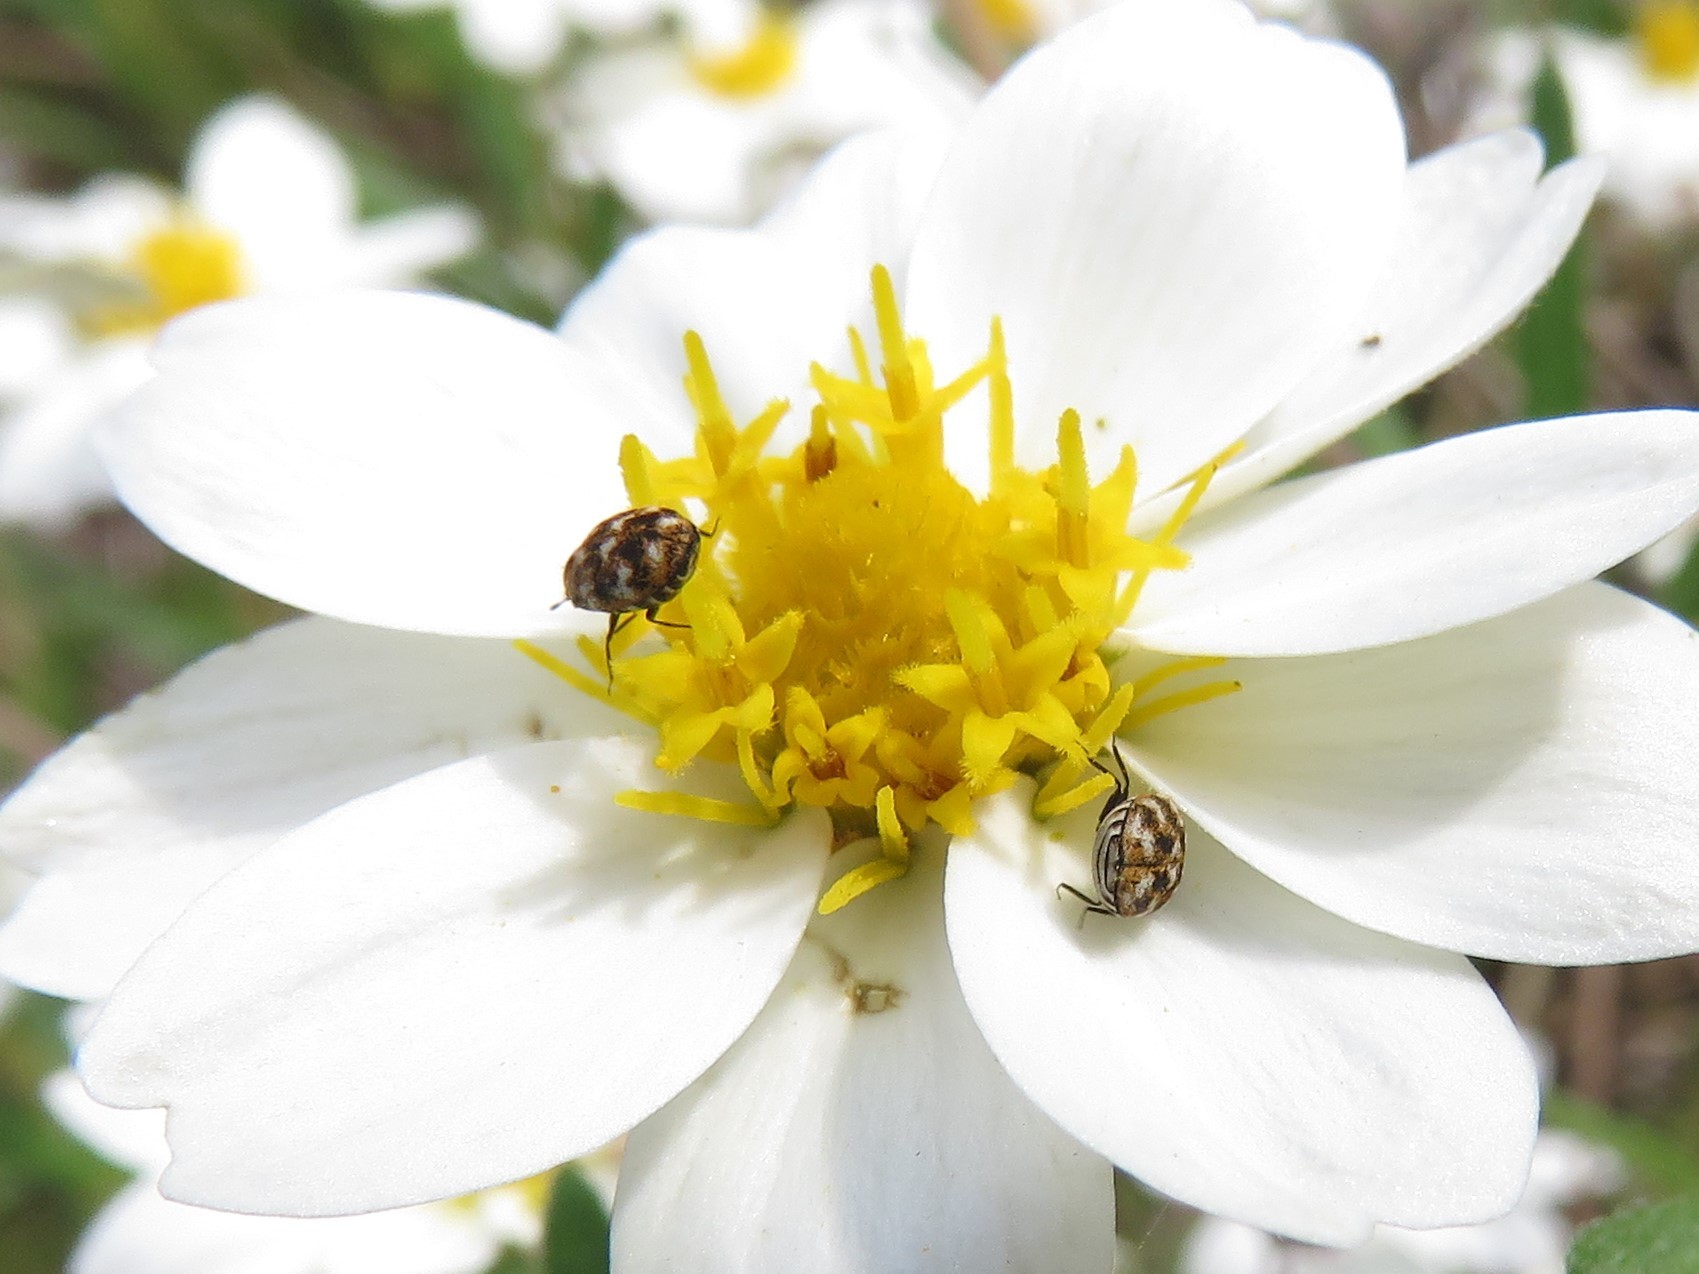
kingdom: Animalia
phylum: Arthropoda
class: Insecta
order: Coleoptera
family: Dermestidae
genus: Anthrenus
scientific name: Anthrenus verbasci
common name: Varied carpet beetle
